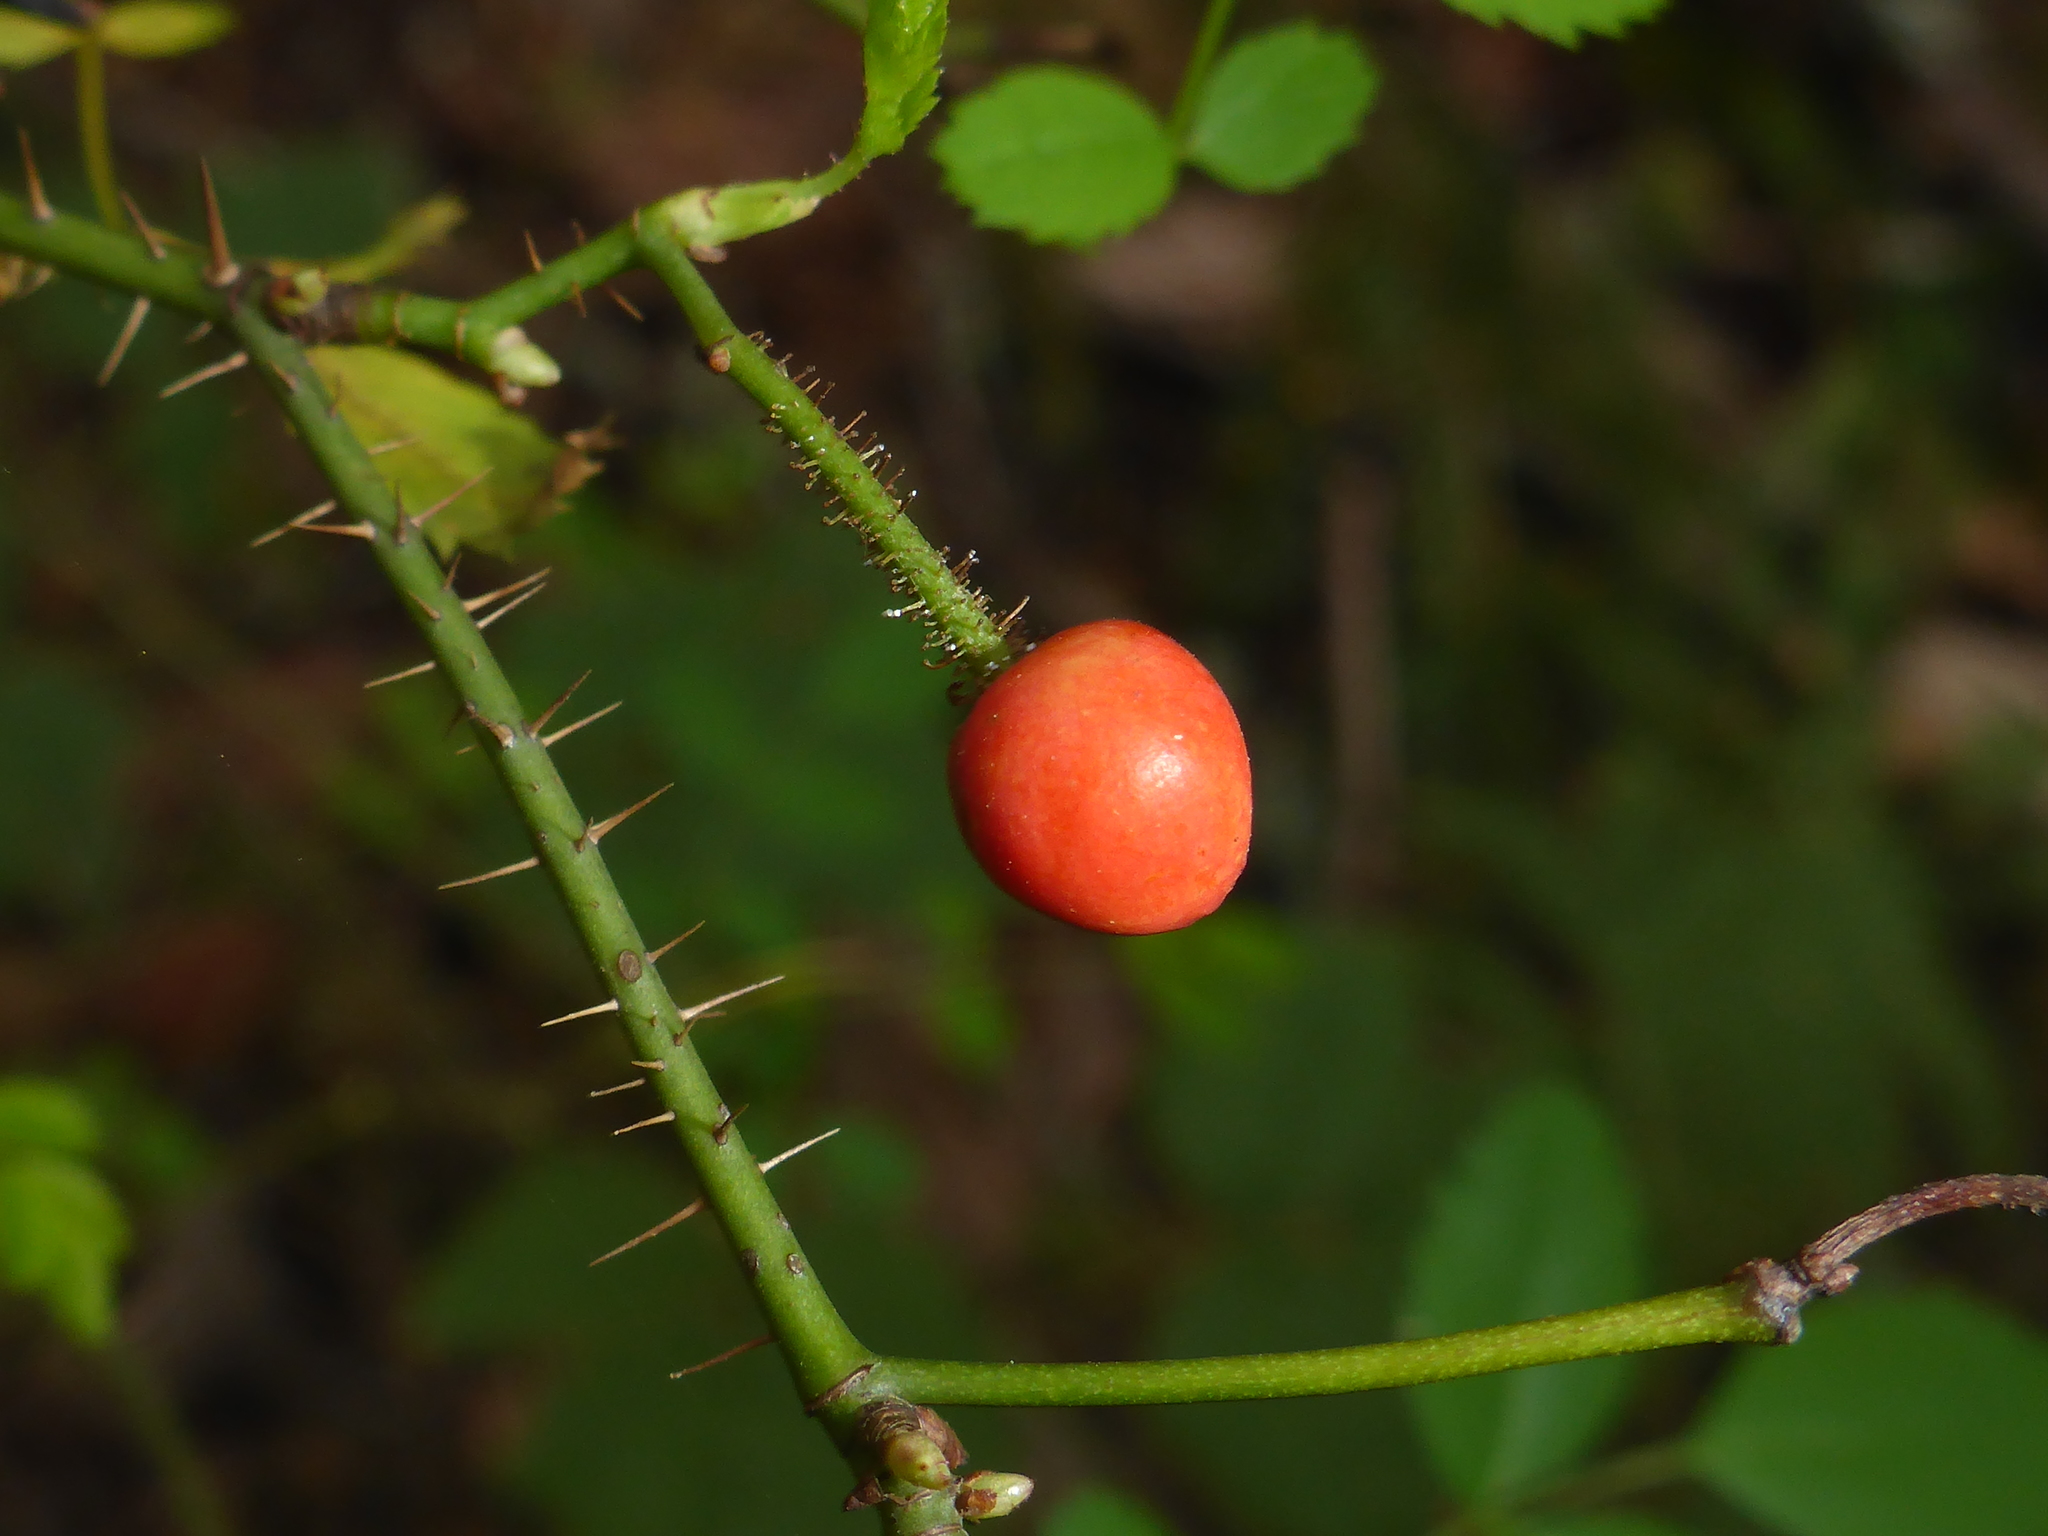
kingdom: Plantae
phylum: Tracheophyta
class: Magnoliopsida
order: Rosales
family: Rosaceae
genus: Rosa
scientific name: Rosa gymnocarpa
